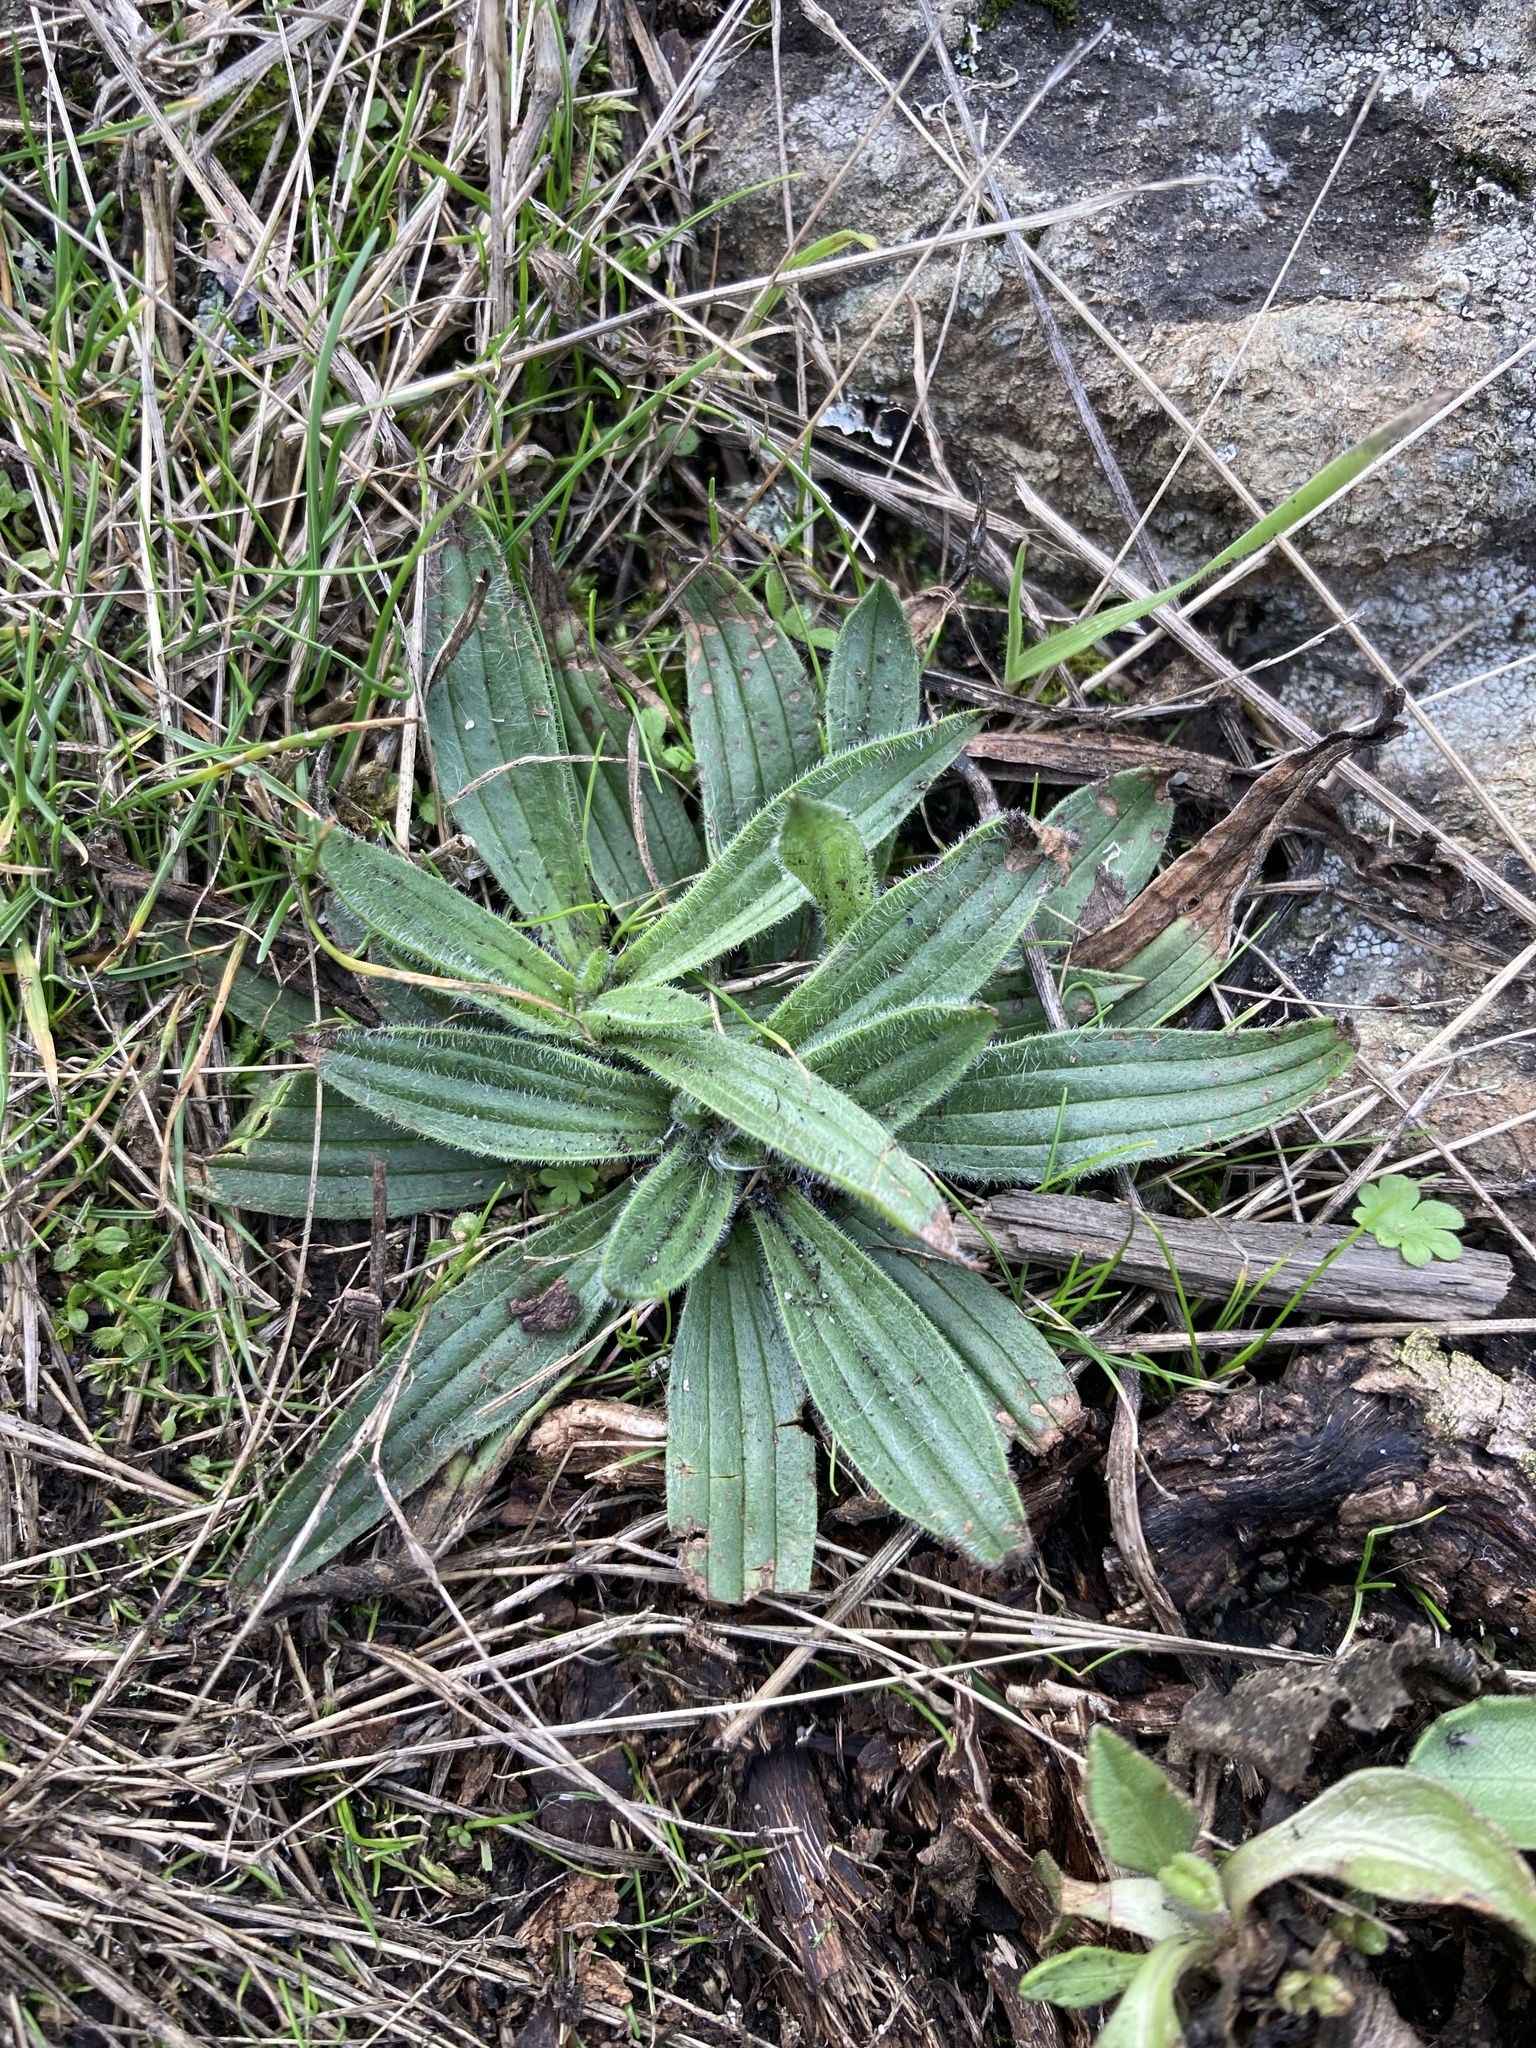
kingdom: Plantae
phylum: Tracheophyta
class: Magnoliopsida
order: Lamiales
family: Plantaginaceae
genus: Plantago
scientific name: Plantago lanceolata
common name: Ribwort plantain
